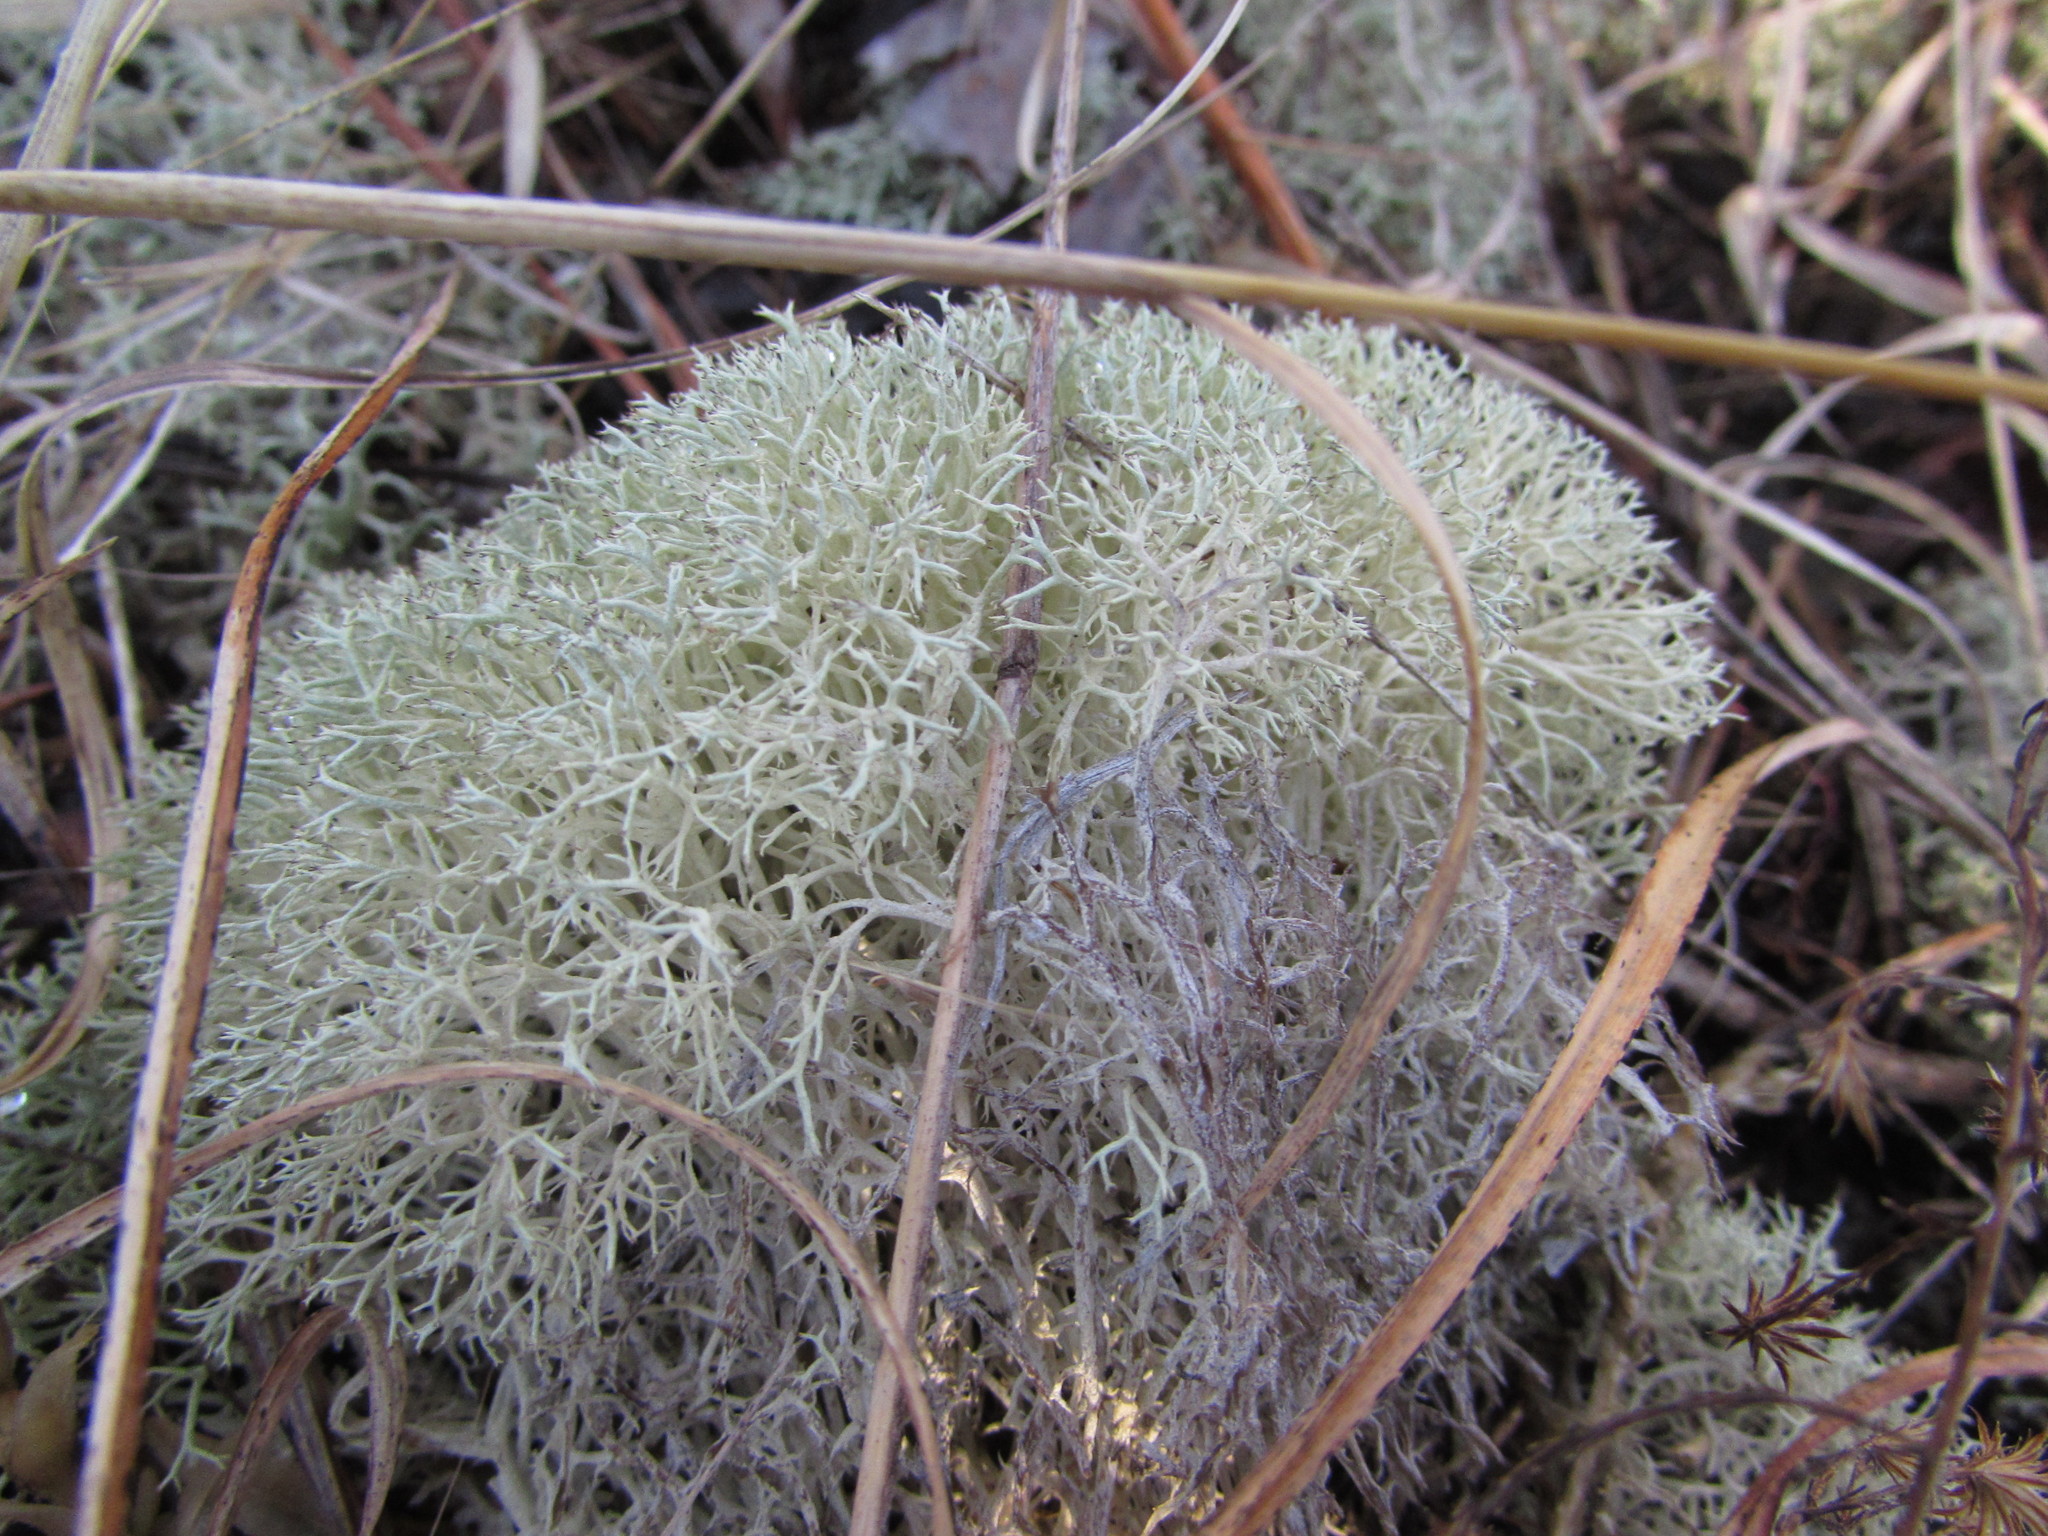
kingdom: Fungi
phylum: Ascomycota
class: Lecanoromycetes
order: Lecanorales
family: Cladoniaceae
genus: Cladonia
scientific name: Cladonia subtenuis
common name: Dixie reindeer lichen
